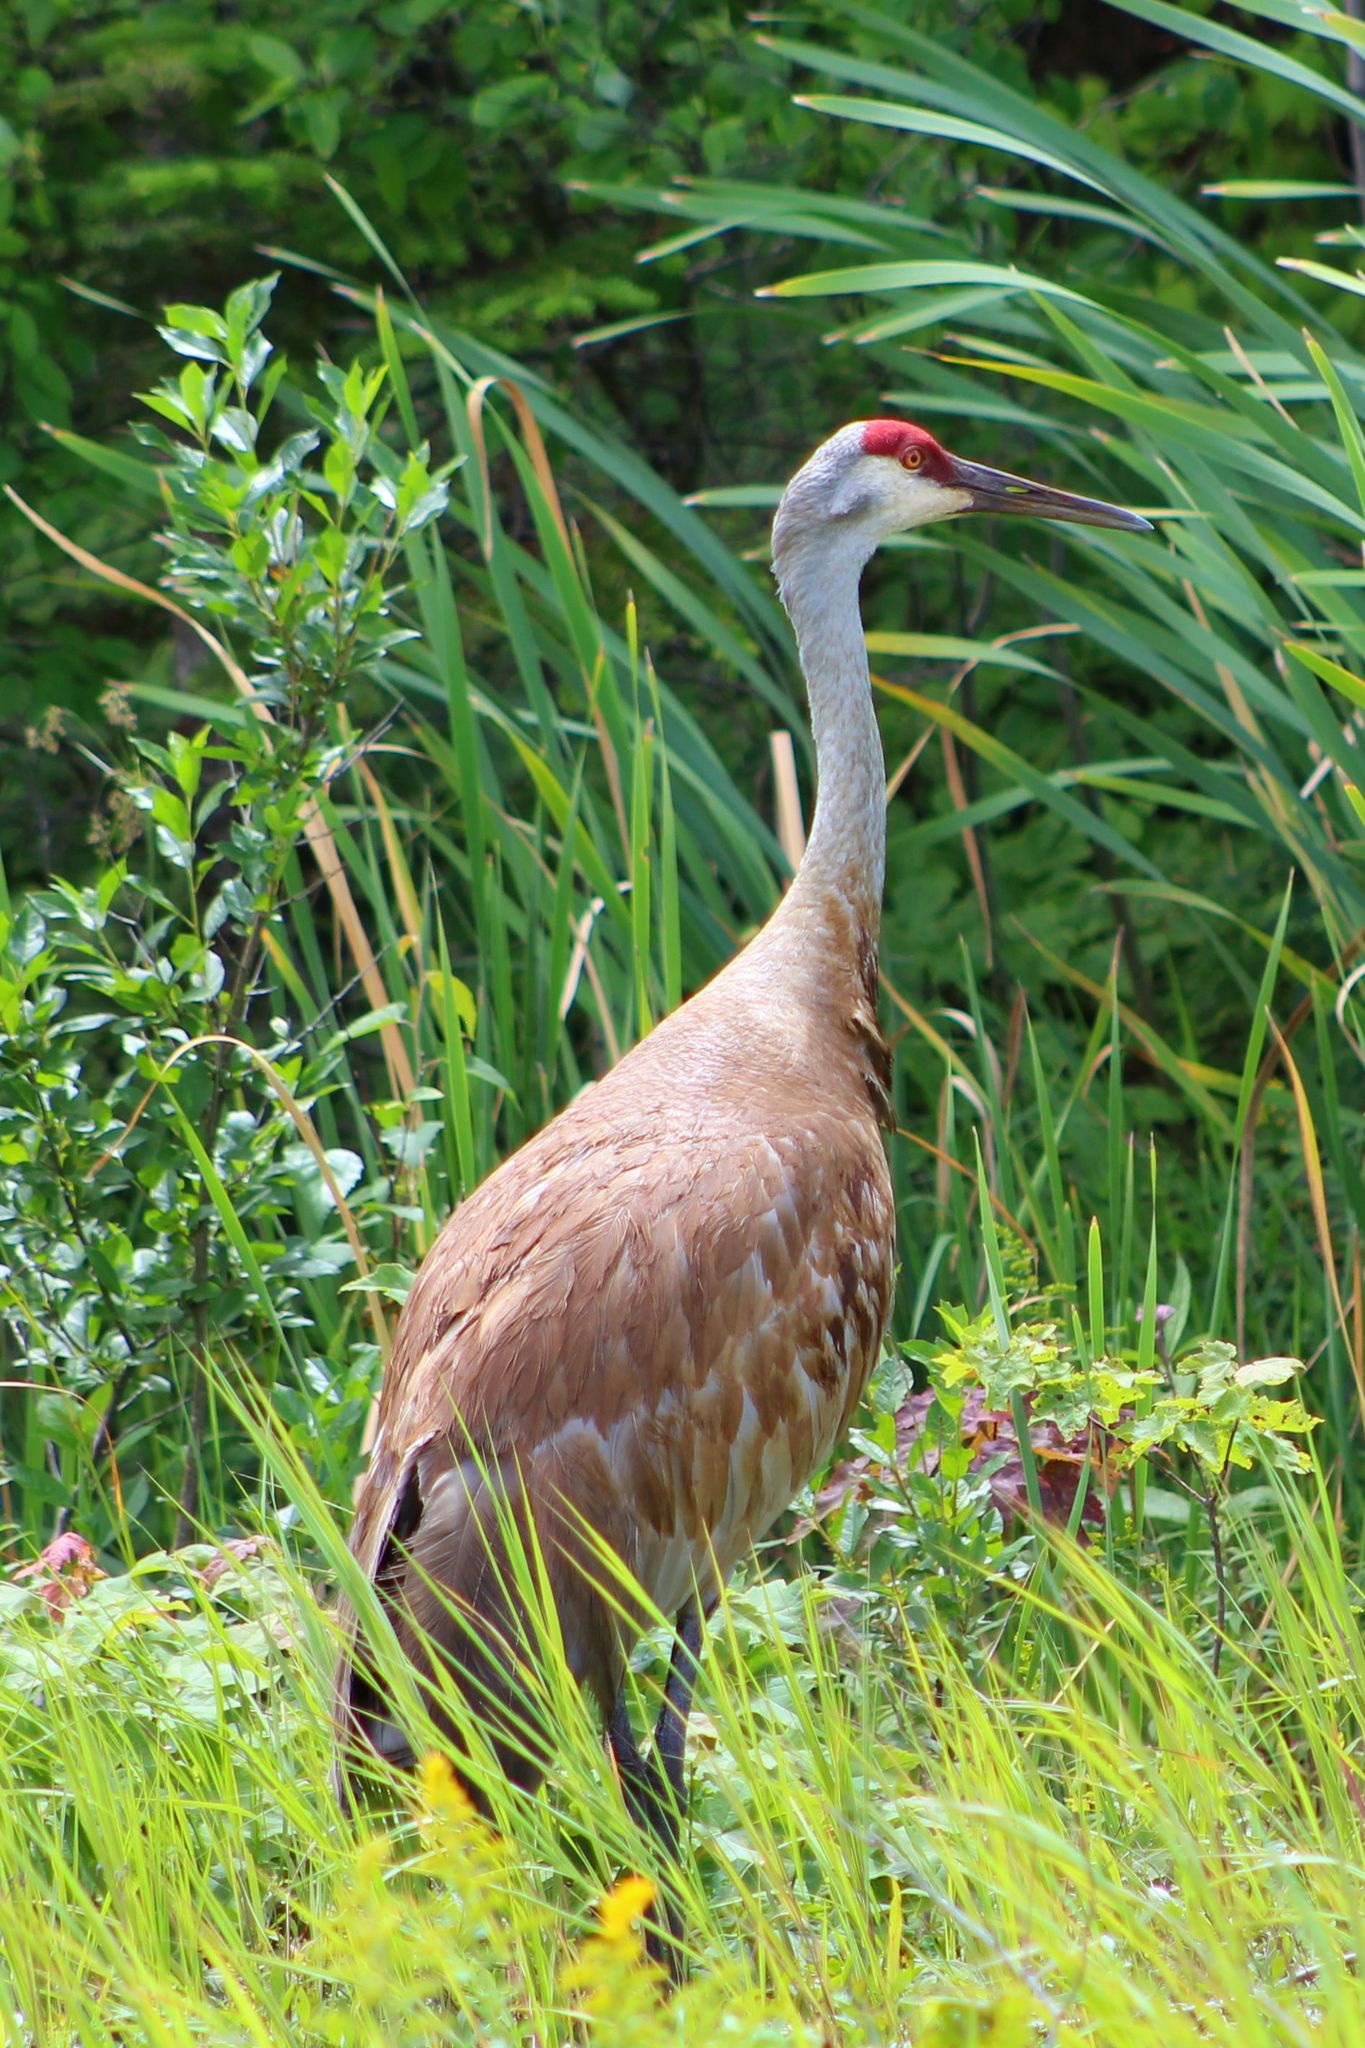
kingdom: Animalia
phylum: Chordata
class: Aves
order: Gruiformes
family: Gruidae
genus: Grus
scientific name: Grus canadensis
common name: Sandhill crane
